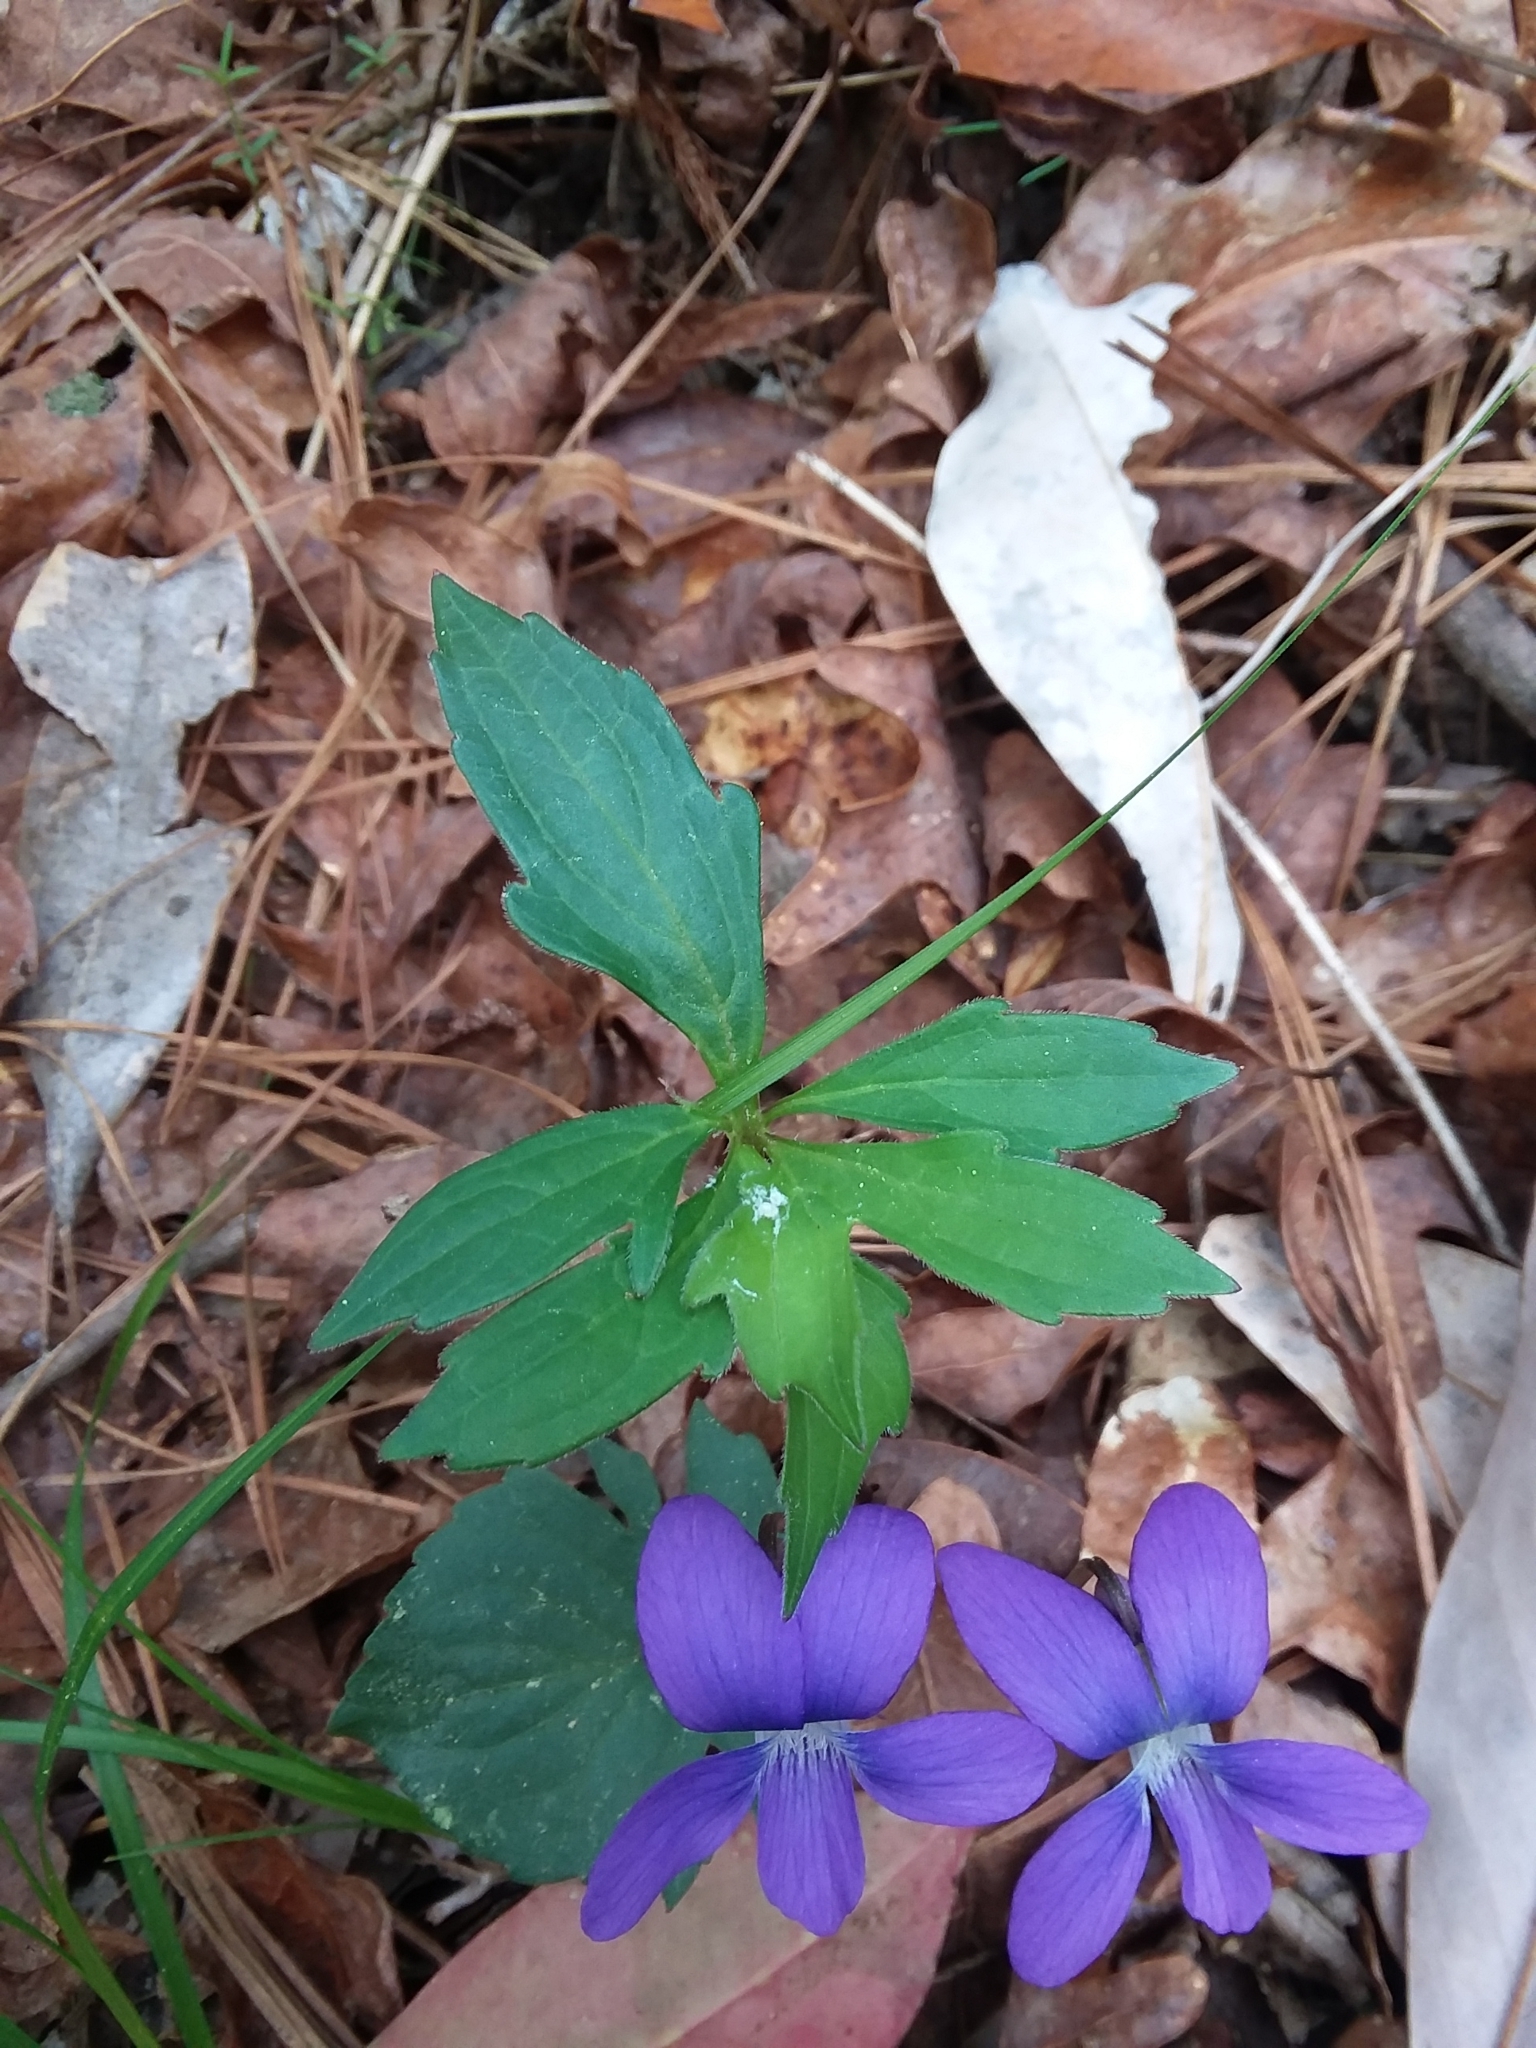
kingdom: Plantae
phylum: Tracheophyta
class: Magnoliopsida
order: Malpighiales
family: Violaceae
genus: Viola
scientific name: Viola palmata
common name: Early blue violet
